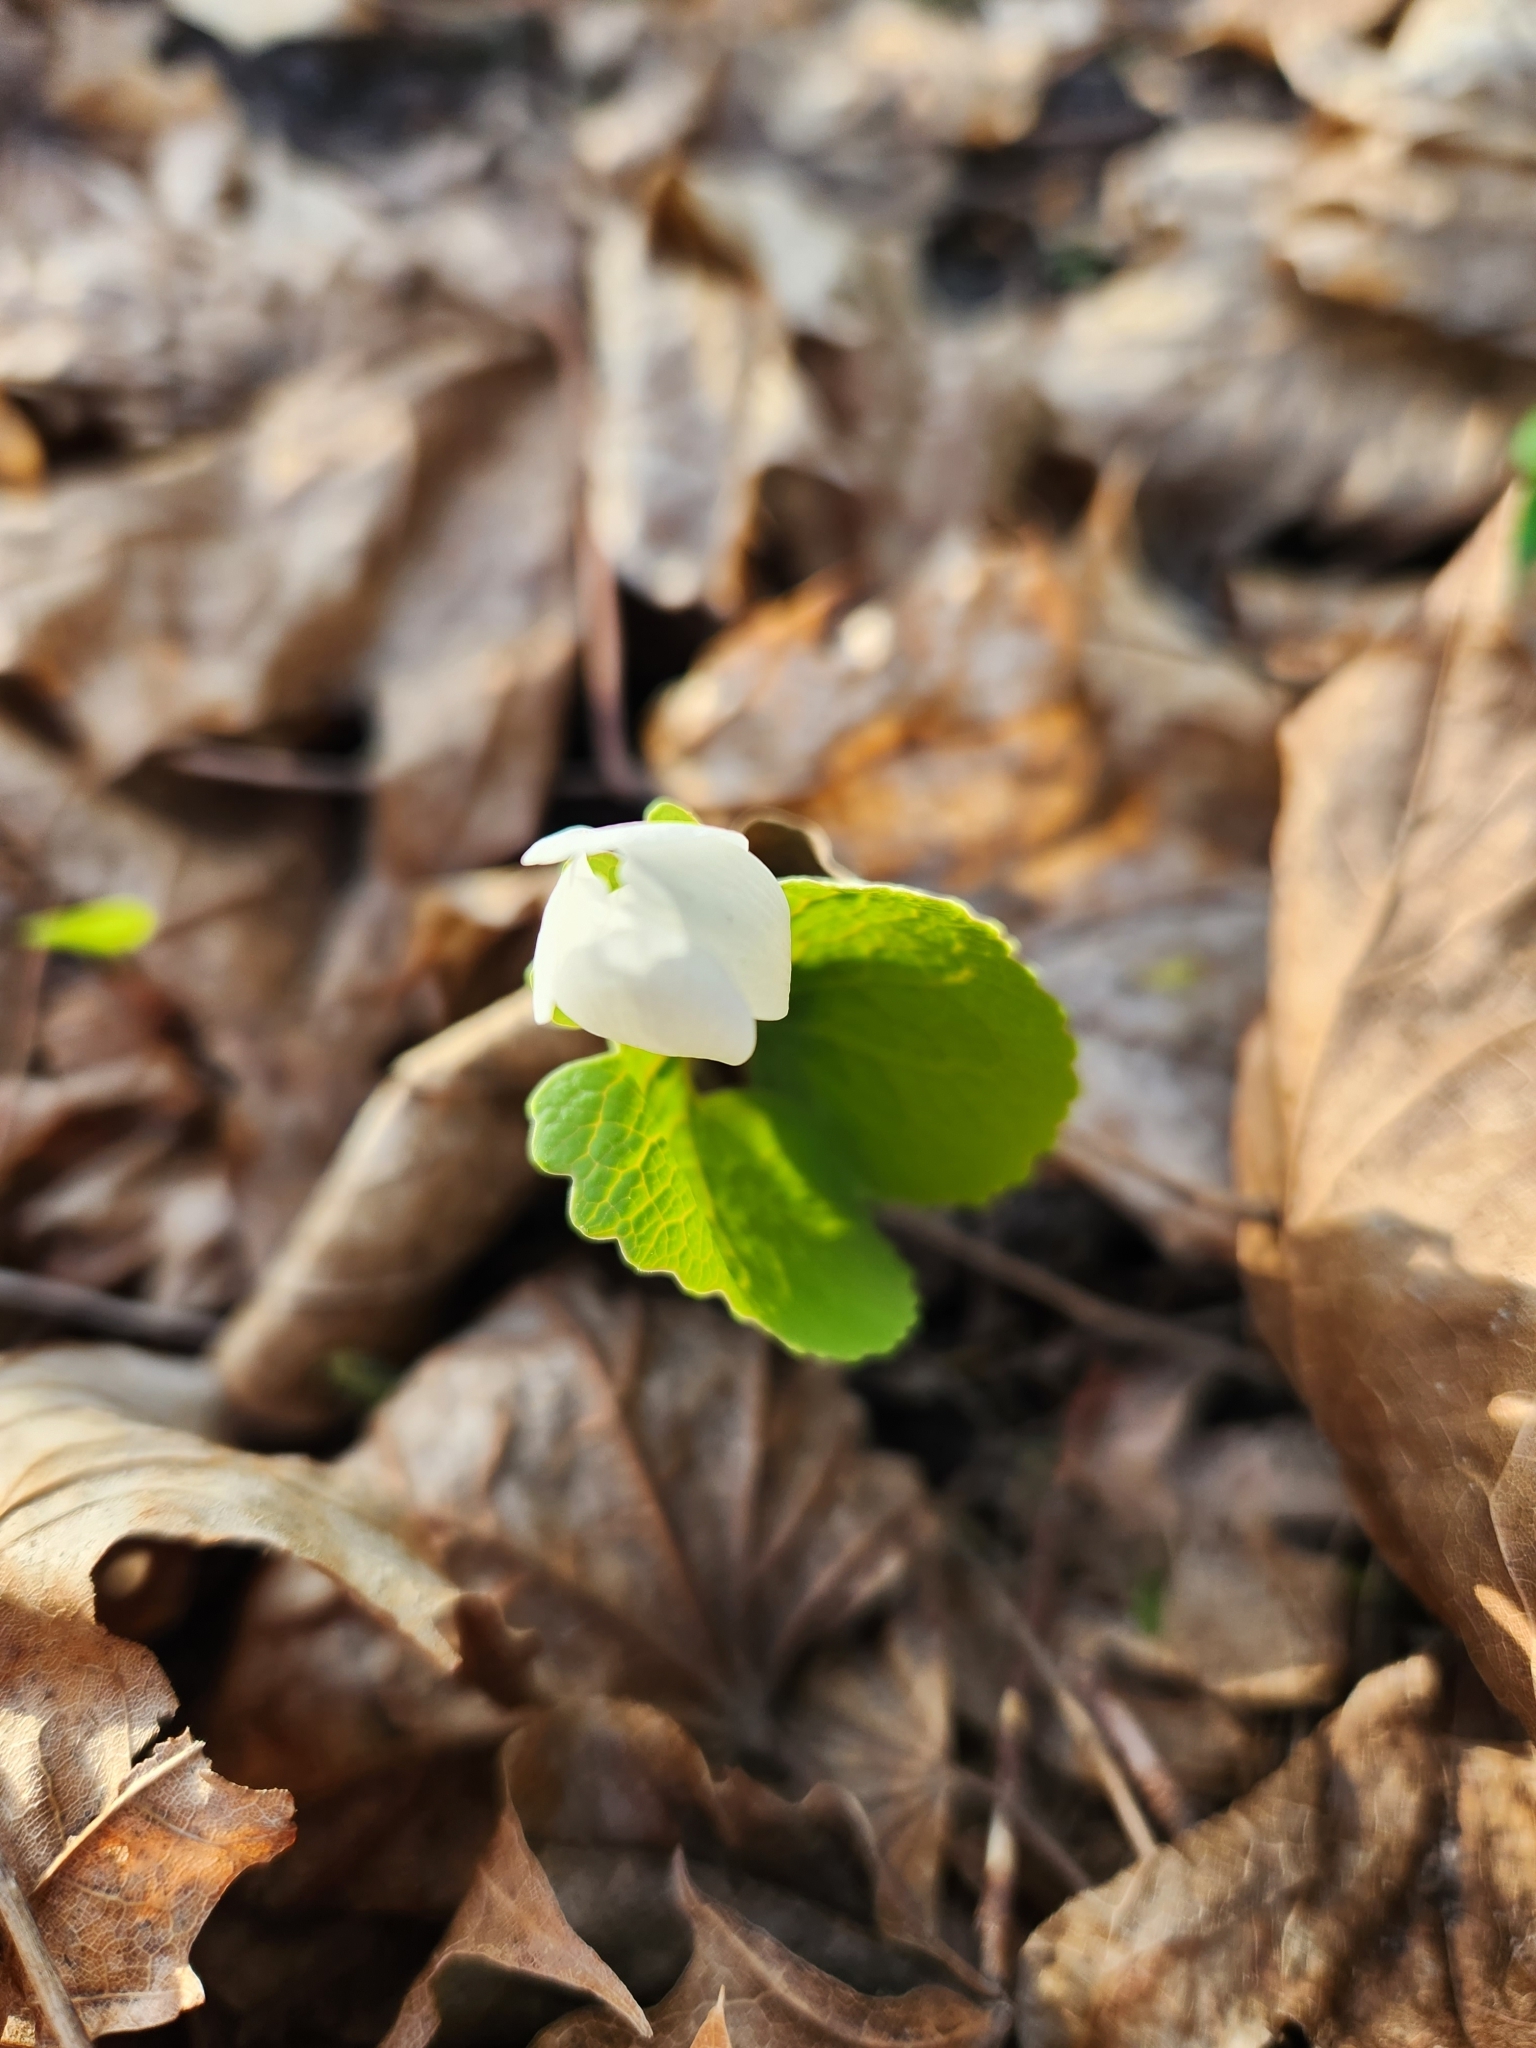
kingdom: Plantae
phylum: Tracheophyta
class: Magnoliopsida
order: Ranunculales
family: Papaveraceae
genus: Sanguinaria
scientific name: Sanguinaria canadensis
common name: Bloodroot
